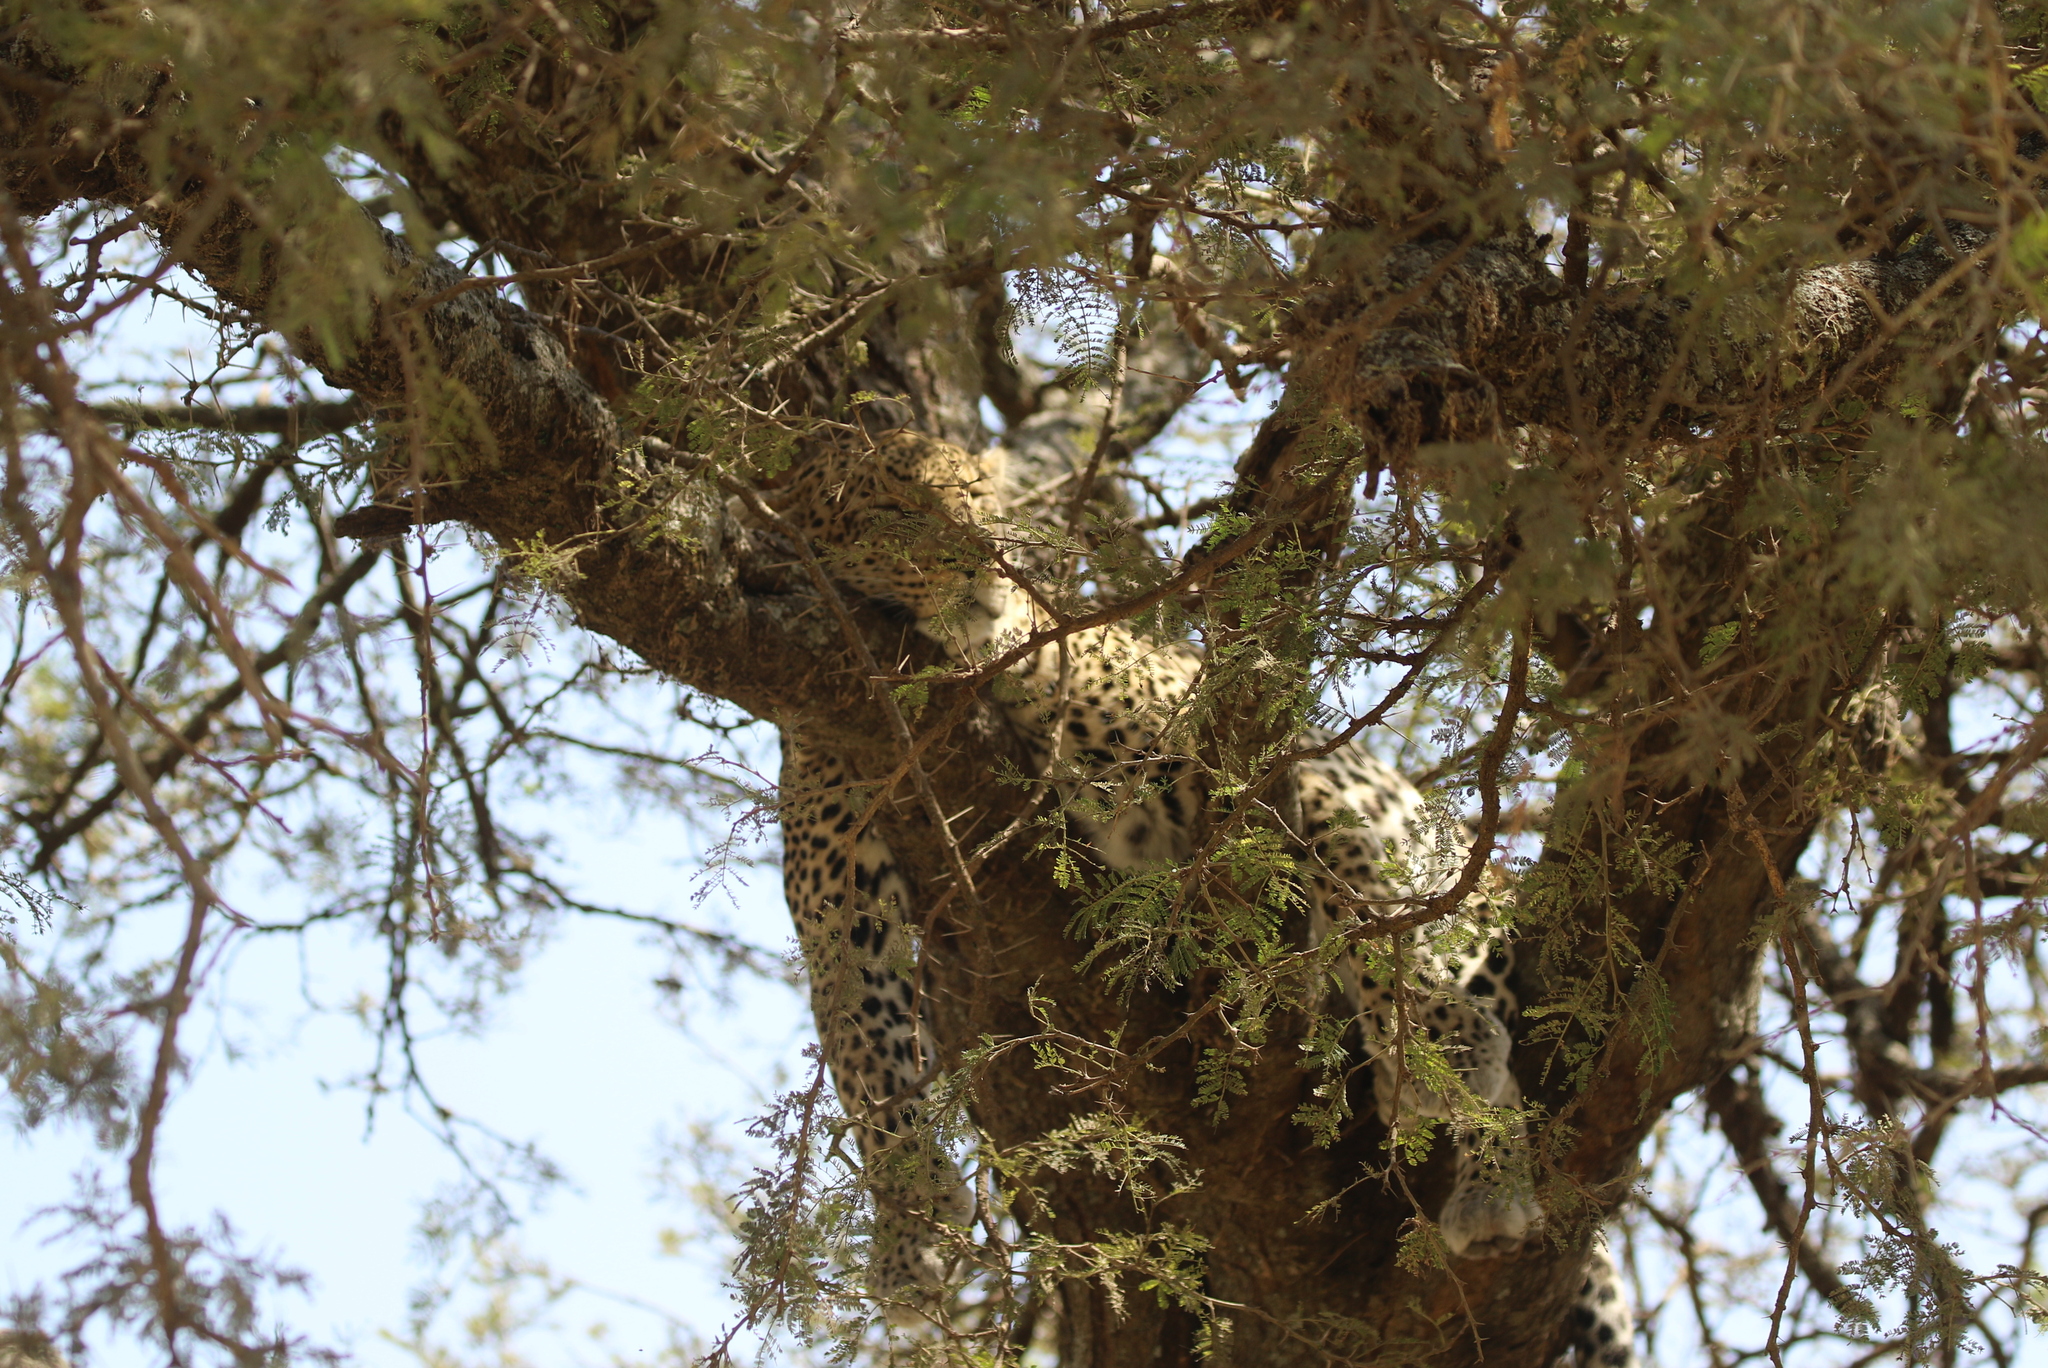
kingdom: Animalia
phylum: Chordata
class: Mammalia
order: Carnivora
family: Felidae
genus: Panthera
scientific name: Panthera pardus
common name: Leopard
